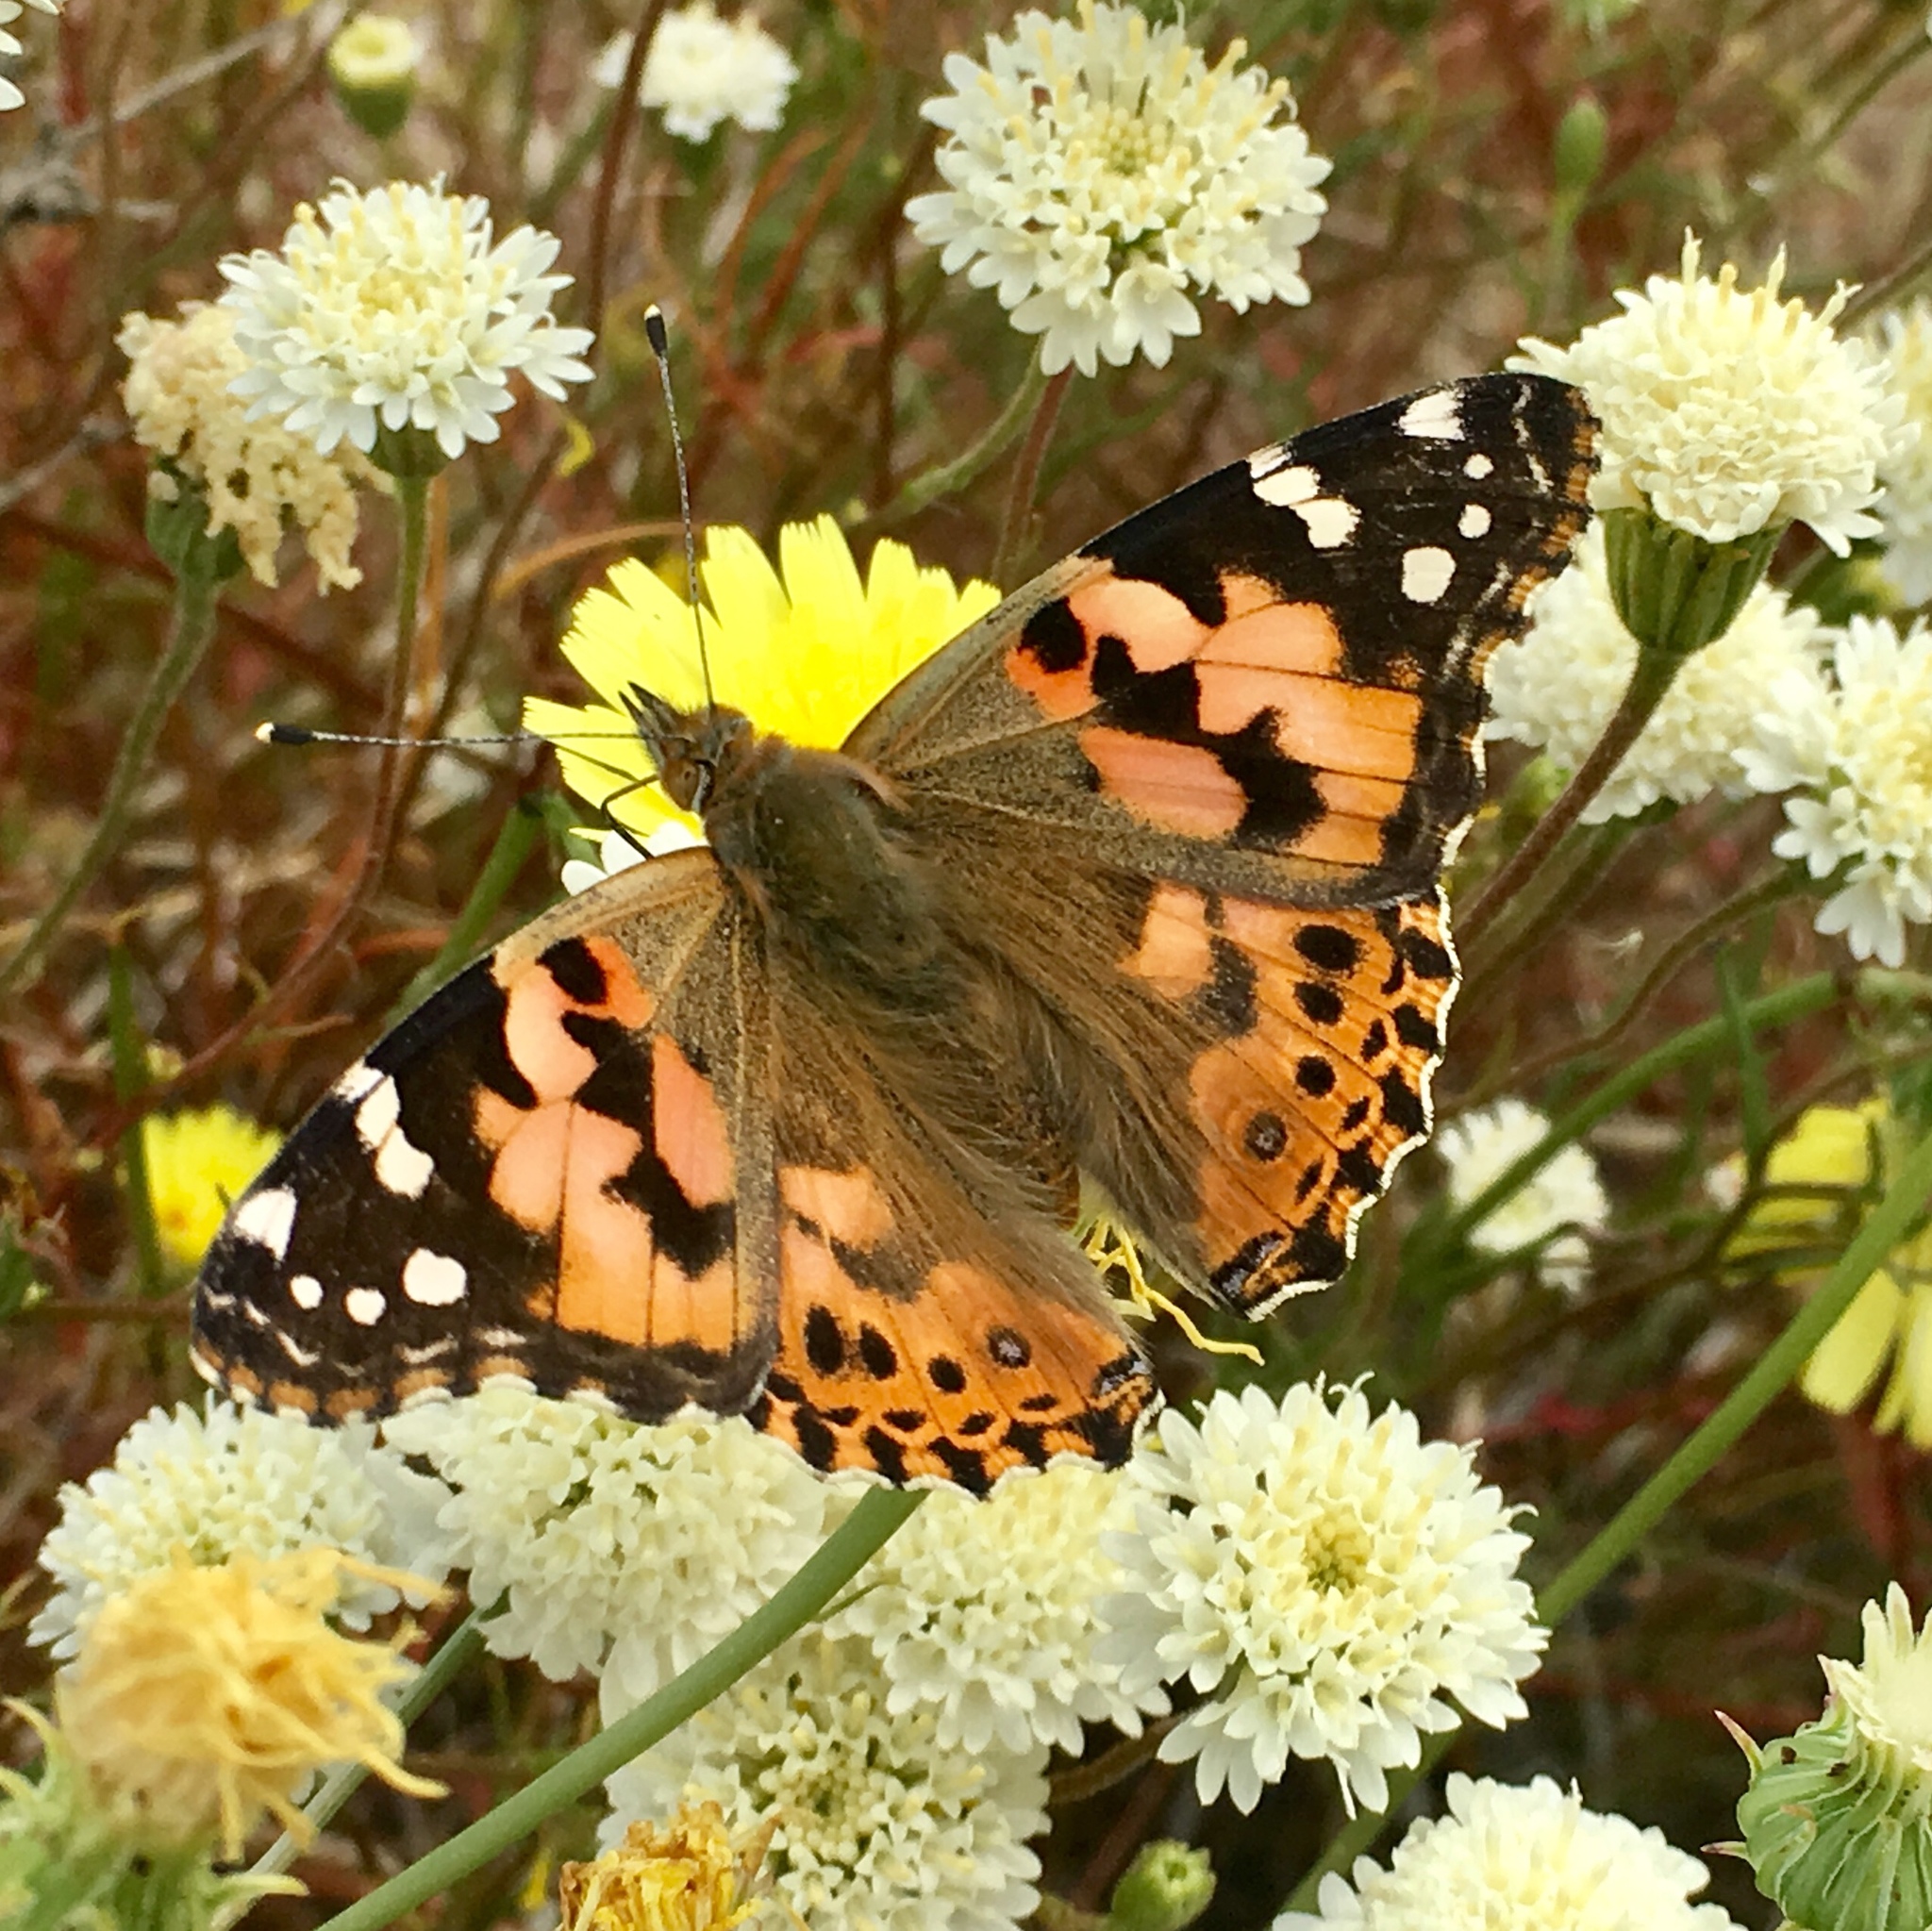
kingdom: Animalia
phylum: Arthropoda
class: Insecta
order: Lepidoptera
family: Nymphalidae
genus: Vanessa
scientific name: Vanessa cardui
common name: Painted lady
